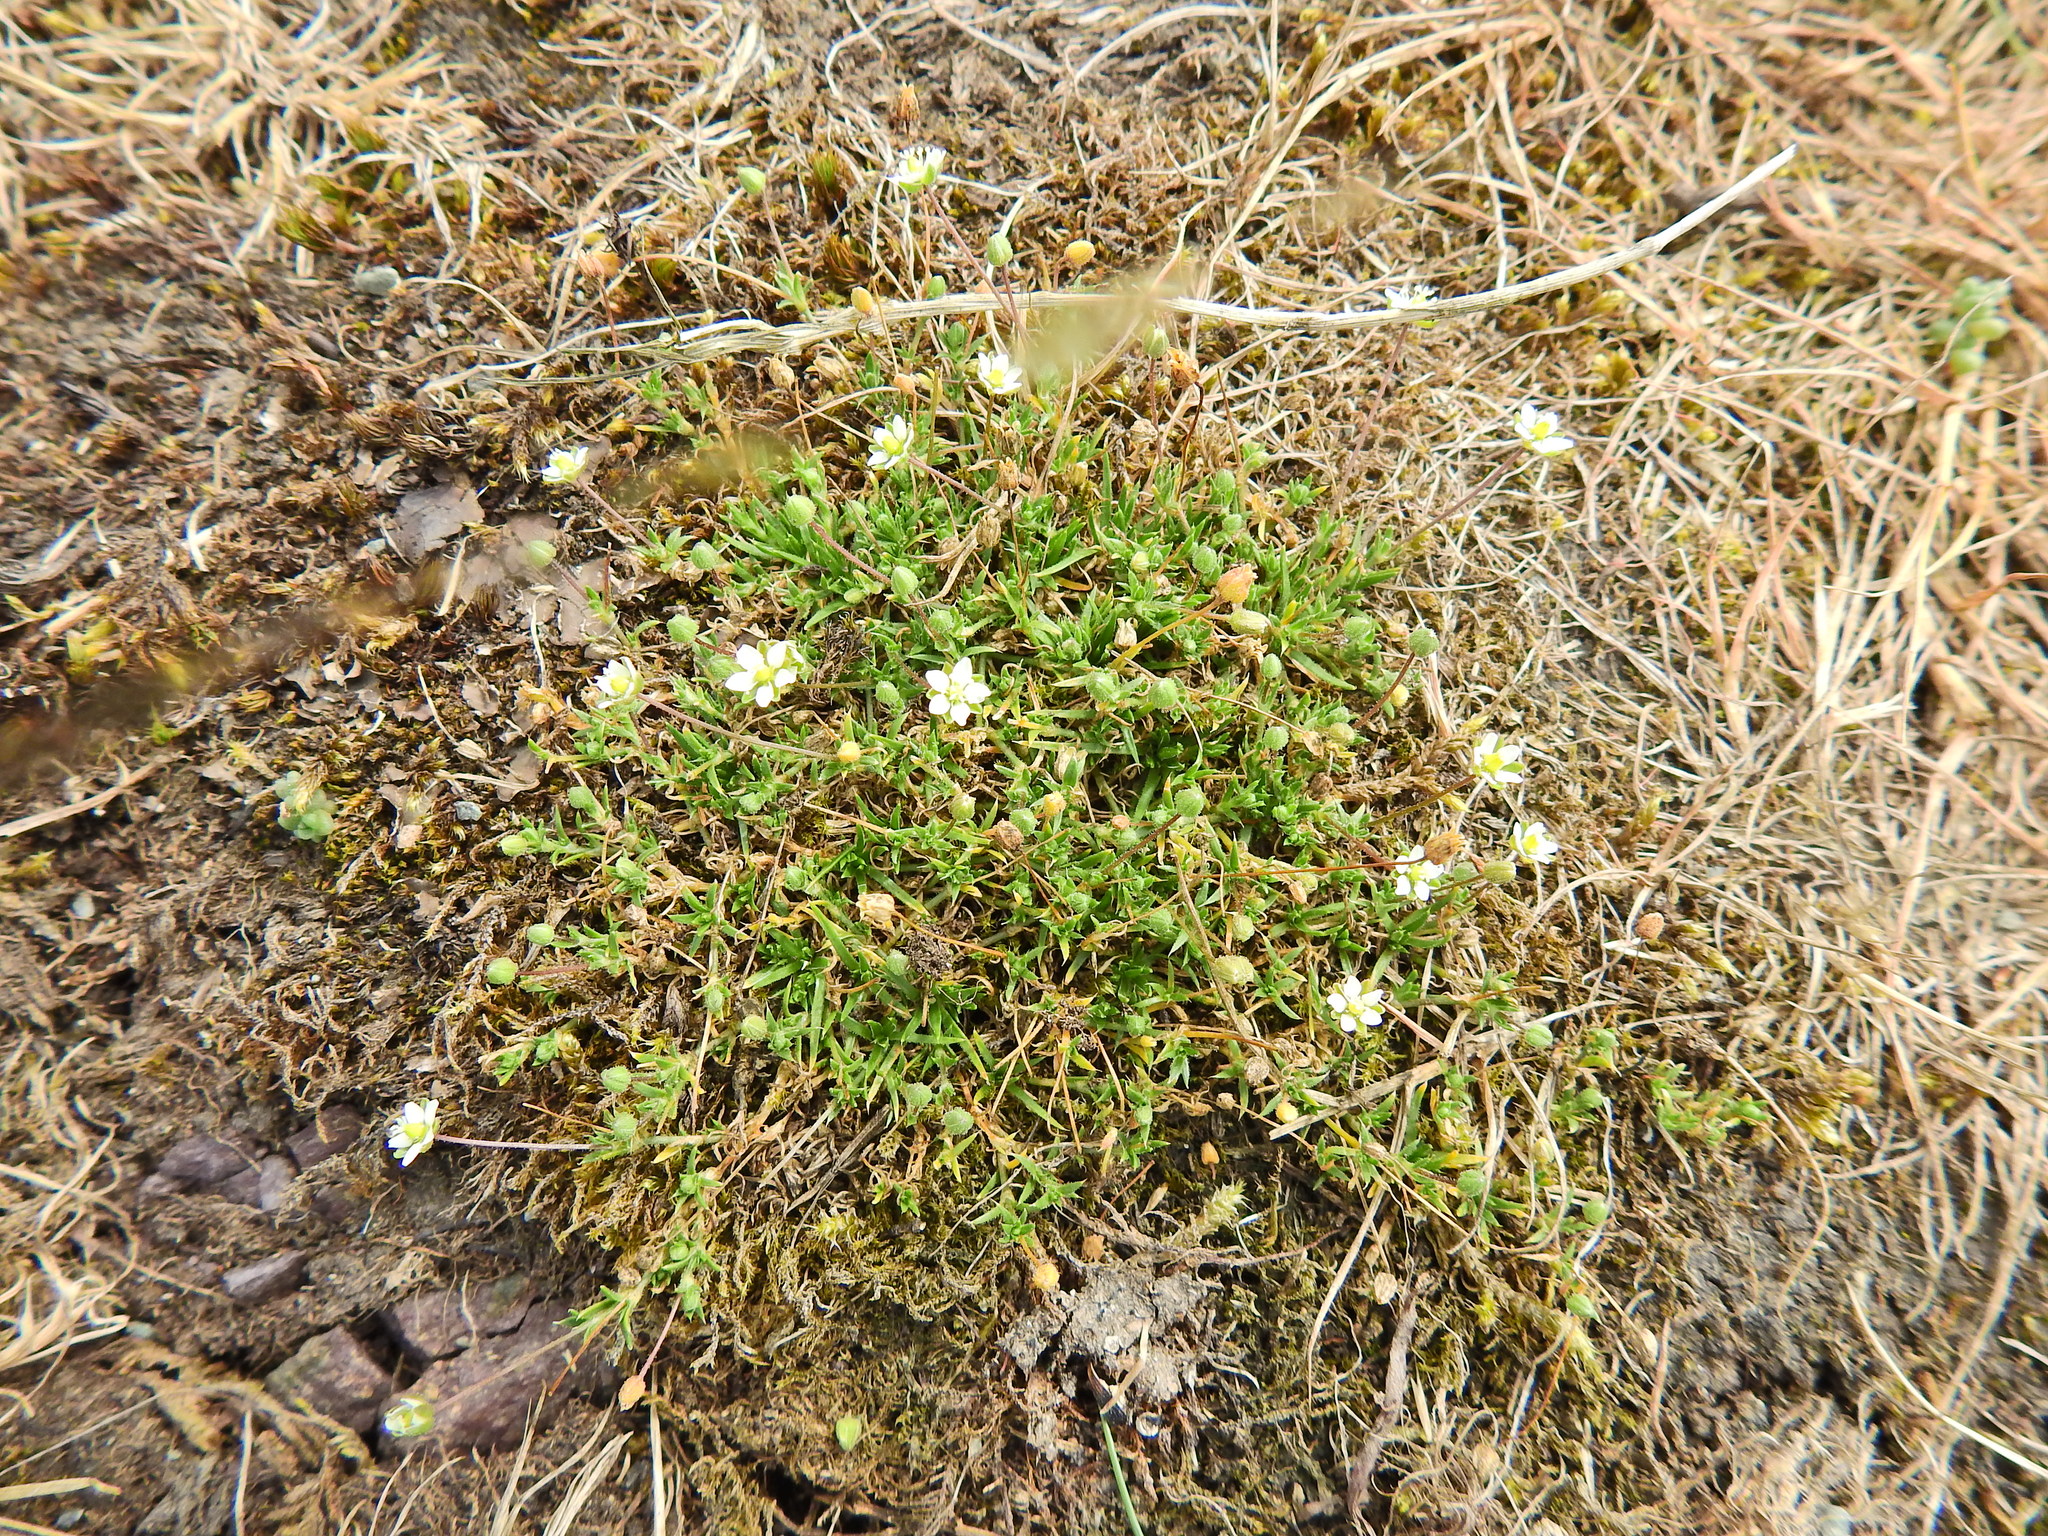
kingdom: Plantae
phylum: Tracheophyta
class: Magnoliopsida
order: Caryophyllales
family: Caryophyllaceae
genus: Spergularia
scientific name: Spergularia marina
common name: Lesser sea-spurrey
